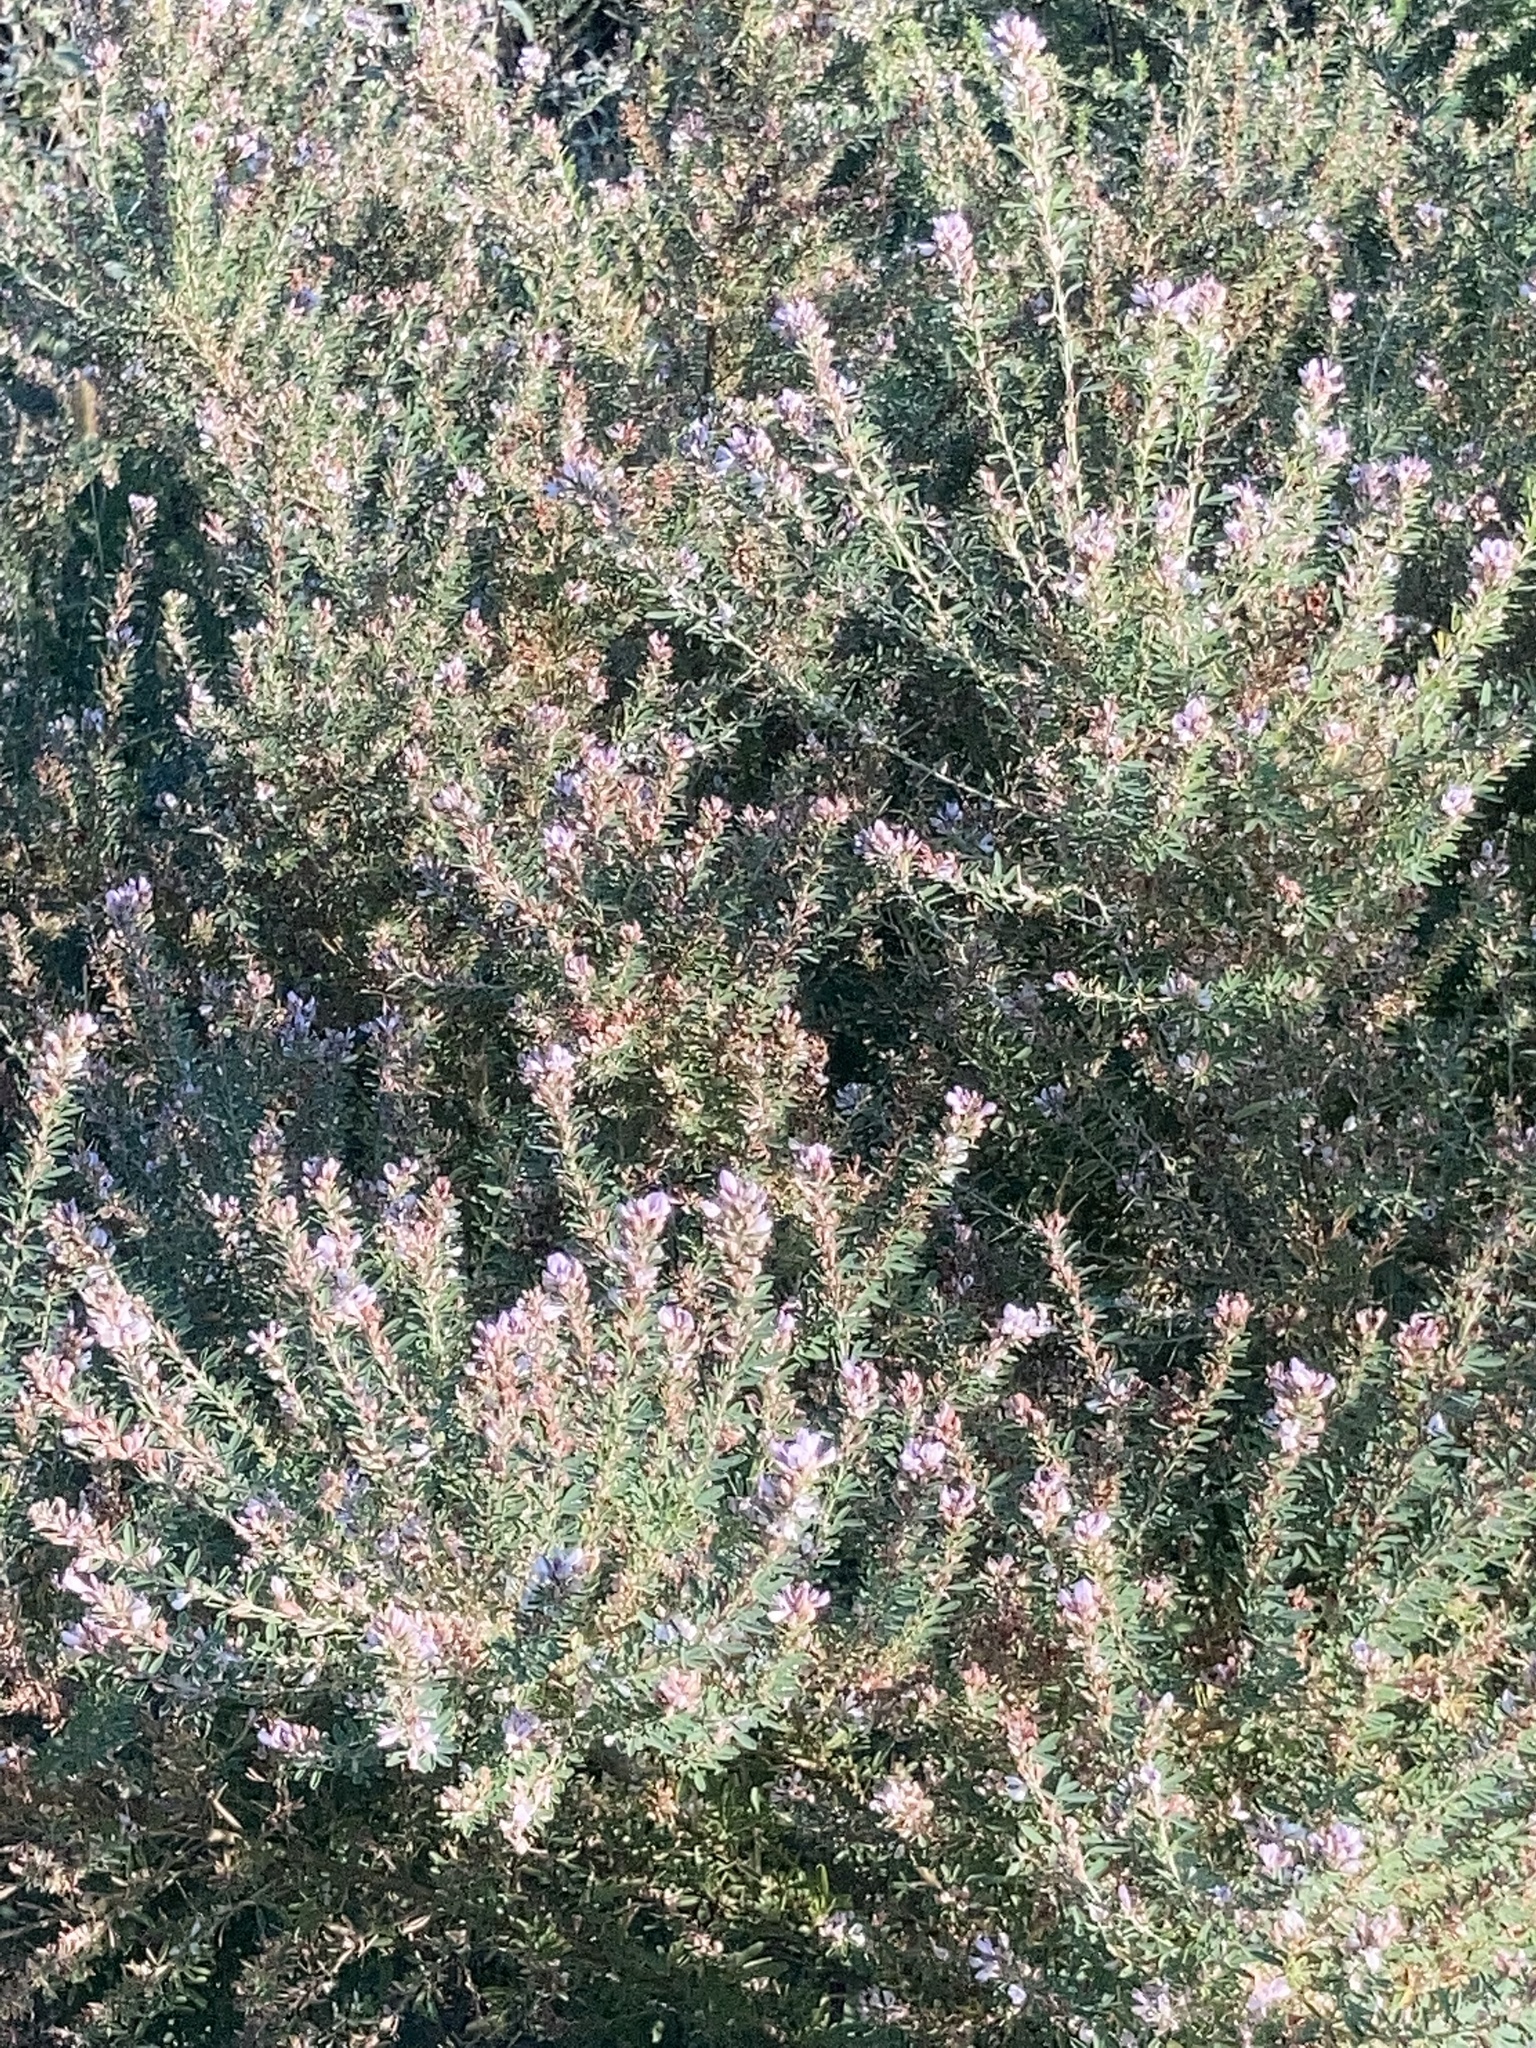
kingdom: Plantae
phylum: Tracheophyta
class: Magnoliopsida
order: Fabales
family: Fabaceae
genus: Lespedeza
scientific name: Lespedeza cuneata
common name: Chinese bush-clover
